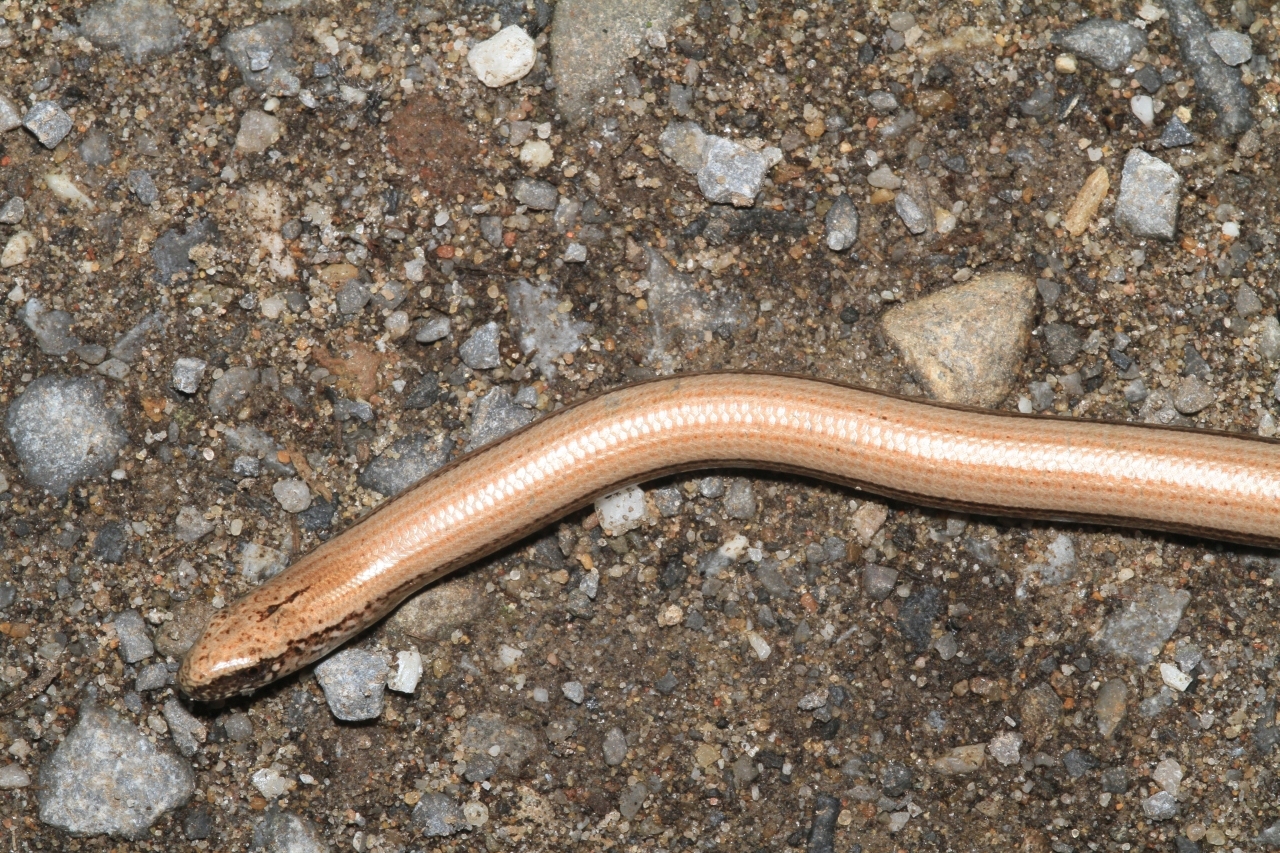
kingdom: Animalia
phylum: Chordata
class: Squamata
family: Anguidae
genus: Anguis
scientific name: Anguis fragilis
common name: Slow worm
